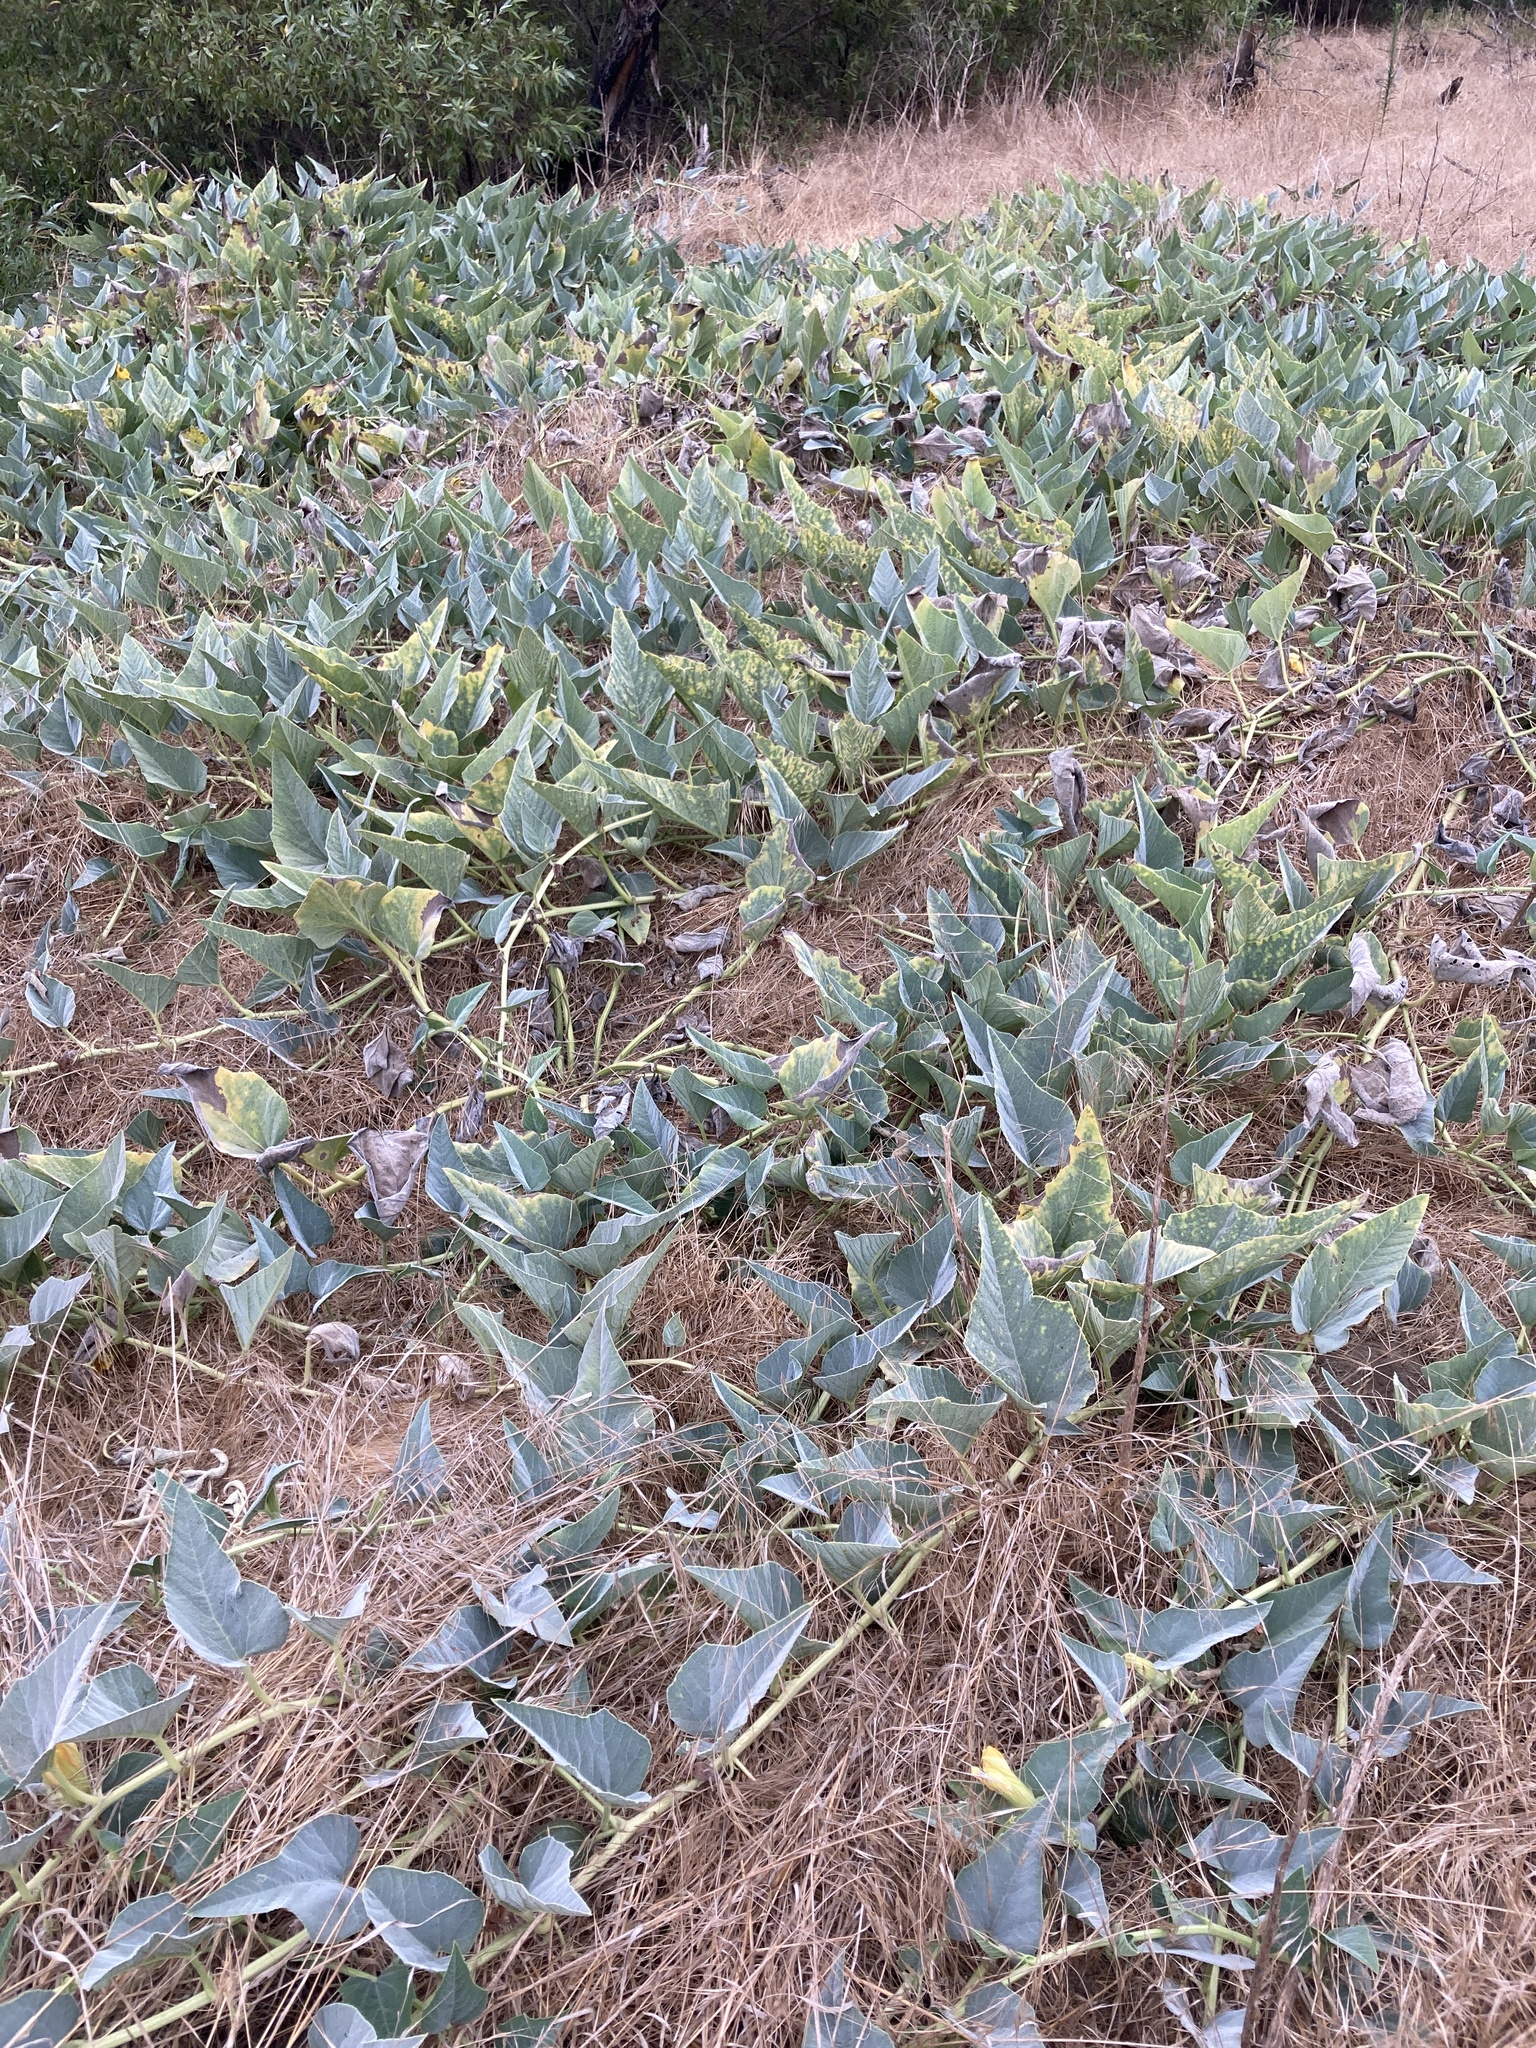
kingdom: Plantae
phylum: Tracheophyta
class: Magnoliopsida
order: Cucurbitales
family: Cucurbitaceae
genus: Cucurbita
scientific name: Cucurbita foetidissima
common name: Buffalo gourd
